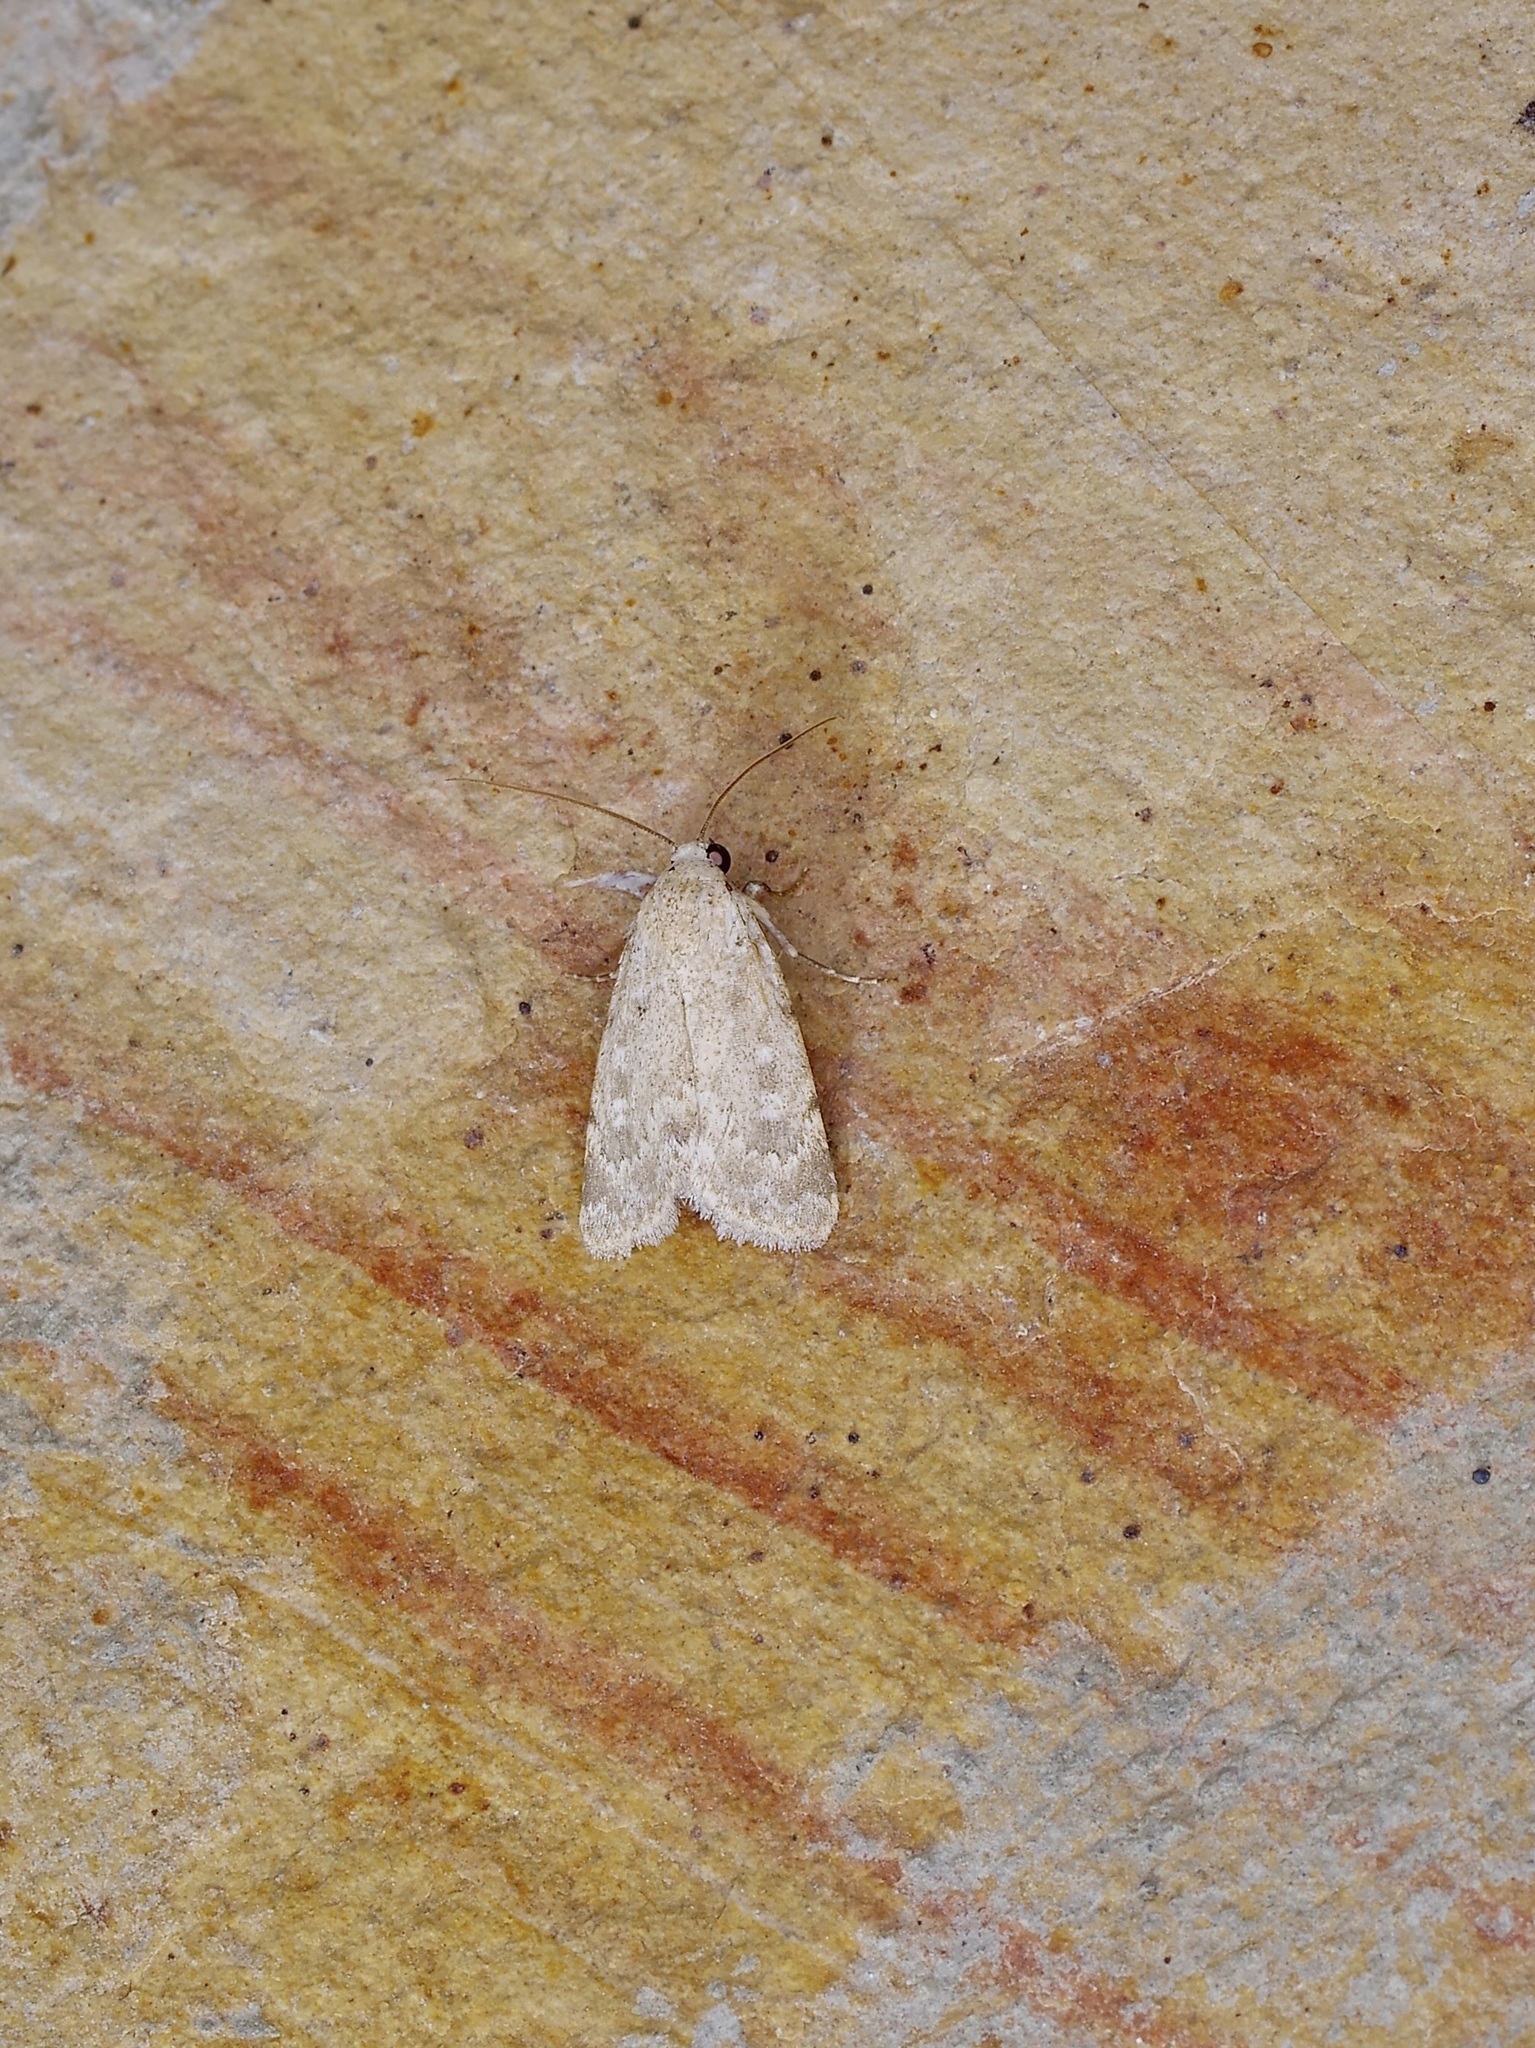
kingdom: Animalia
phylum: Arthropoda
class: Insecta
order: Lepidoptera
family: Noctuidae
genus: Leucocnemis
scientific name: Leucocnemis perfundis
